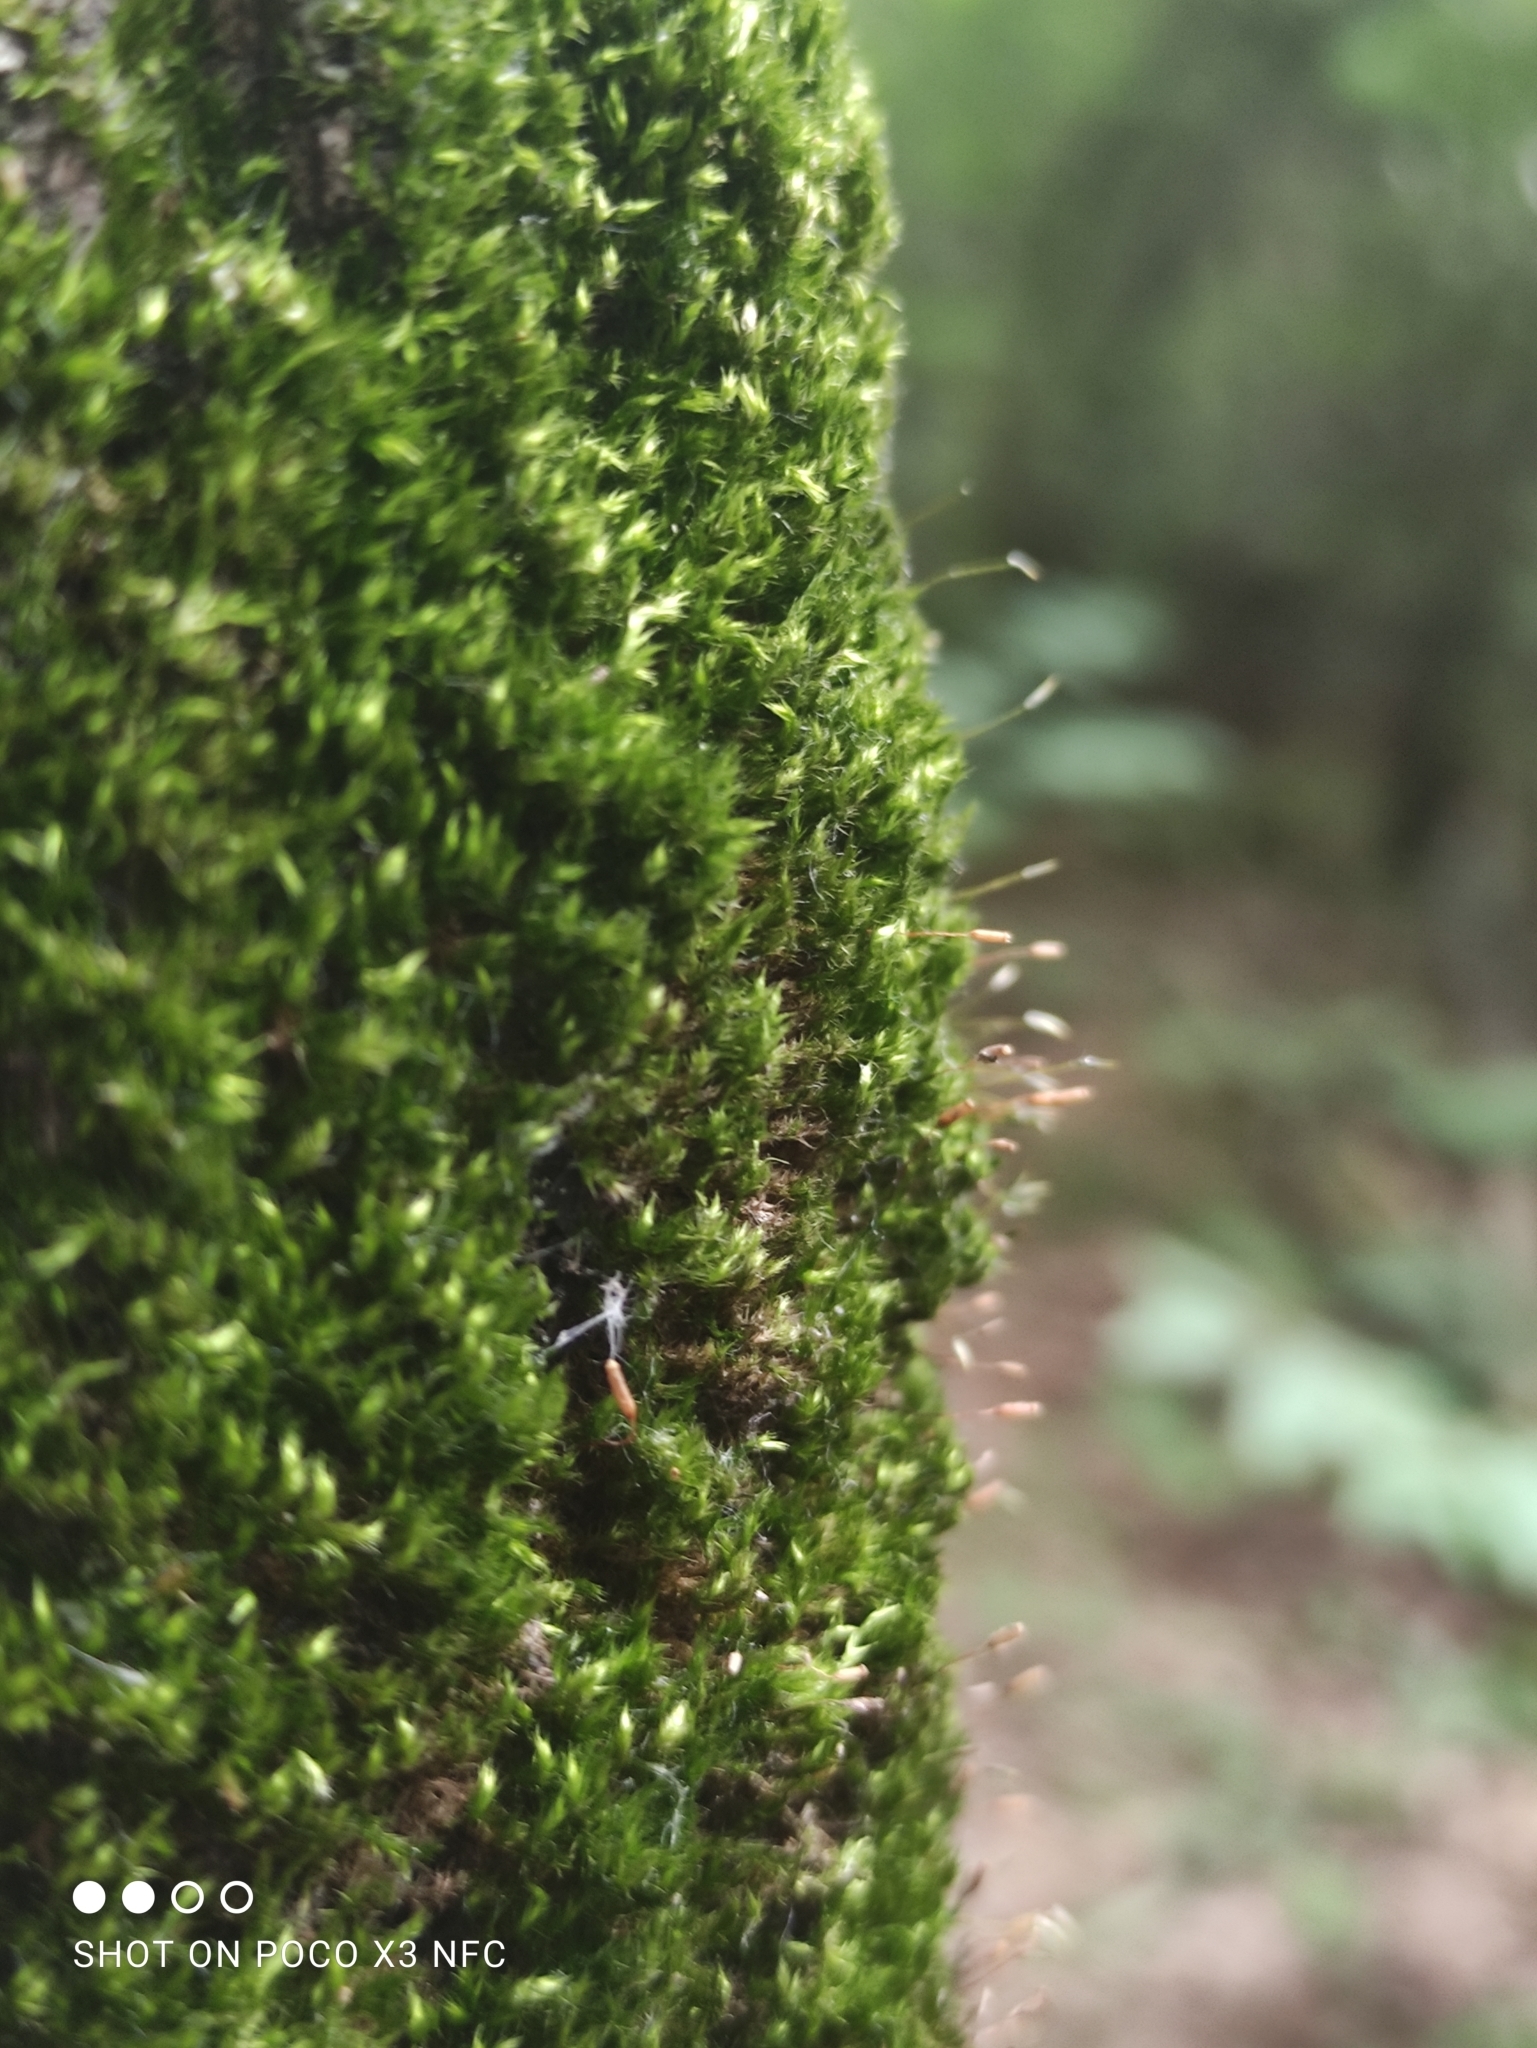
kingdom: Plantae
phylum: Bryophyta
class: Bryopsida
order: Hypnales
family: Pylaisiaceae
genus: Pylaisia
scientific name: Pylaisia polyantha
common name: Many-flowered leskea
